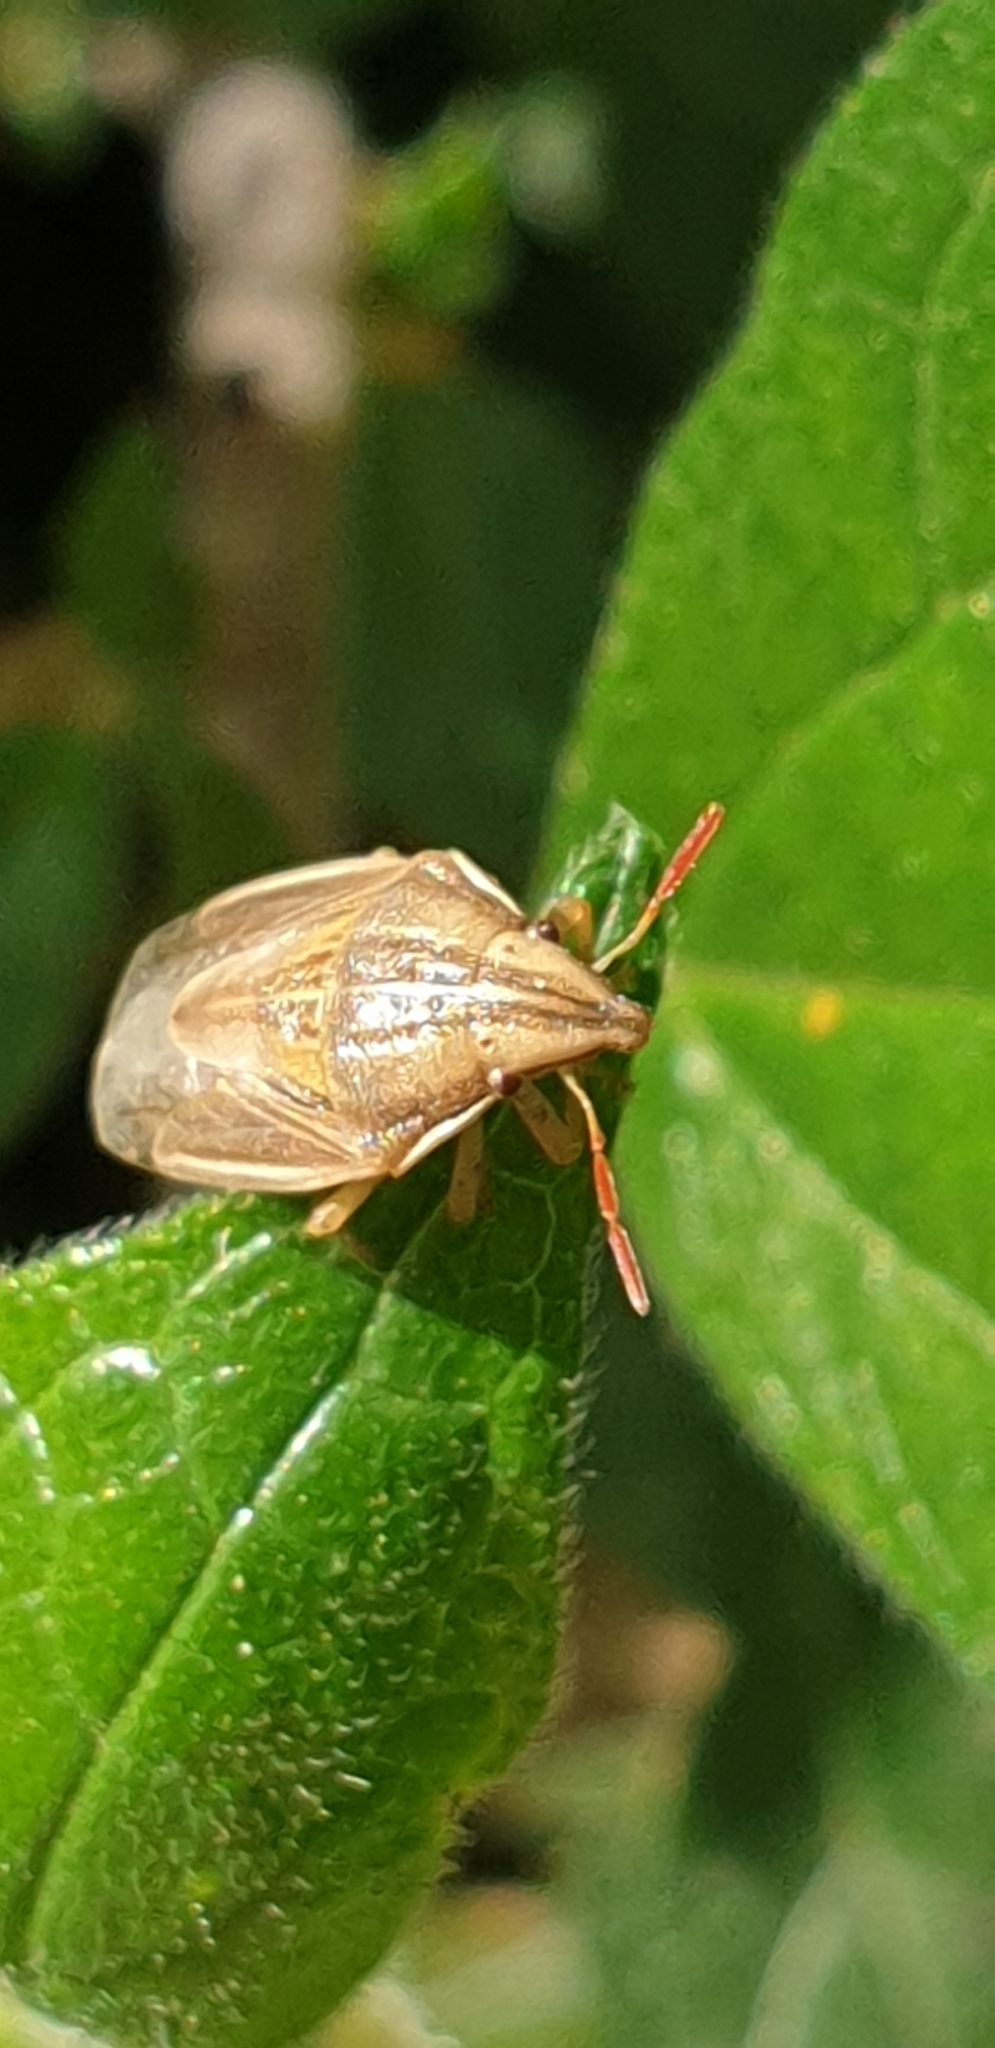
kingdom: Animalia
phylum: Arthropoda
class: Insecta
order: Hemiptera
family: Pentatomidae
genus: Aelia
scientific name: Aelia acuminata
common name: Bishop's mitre
